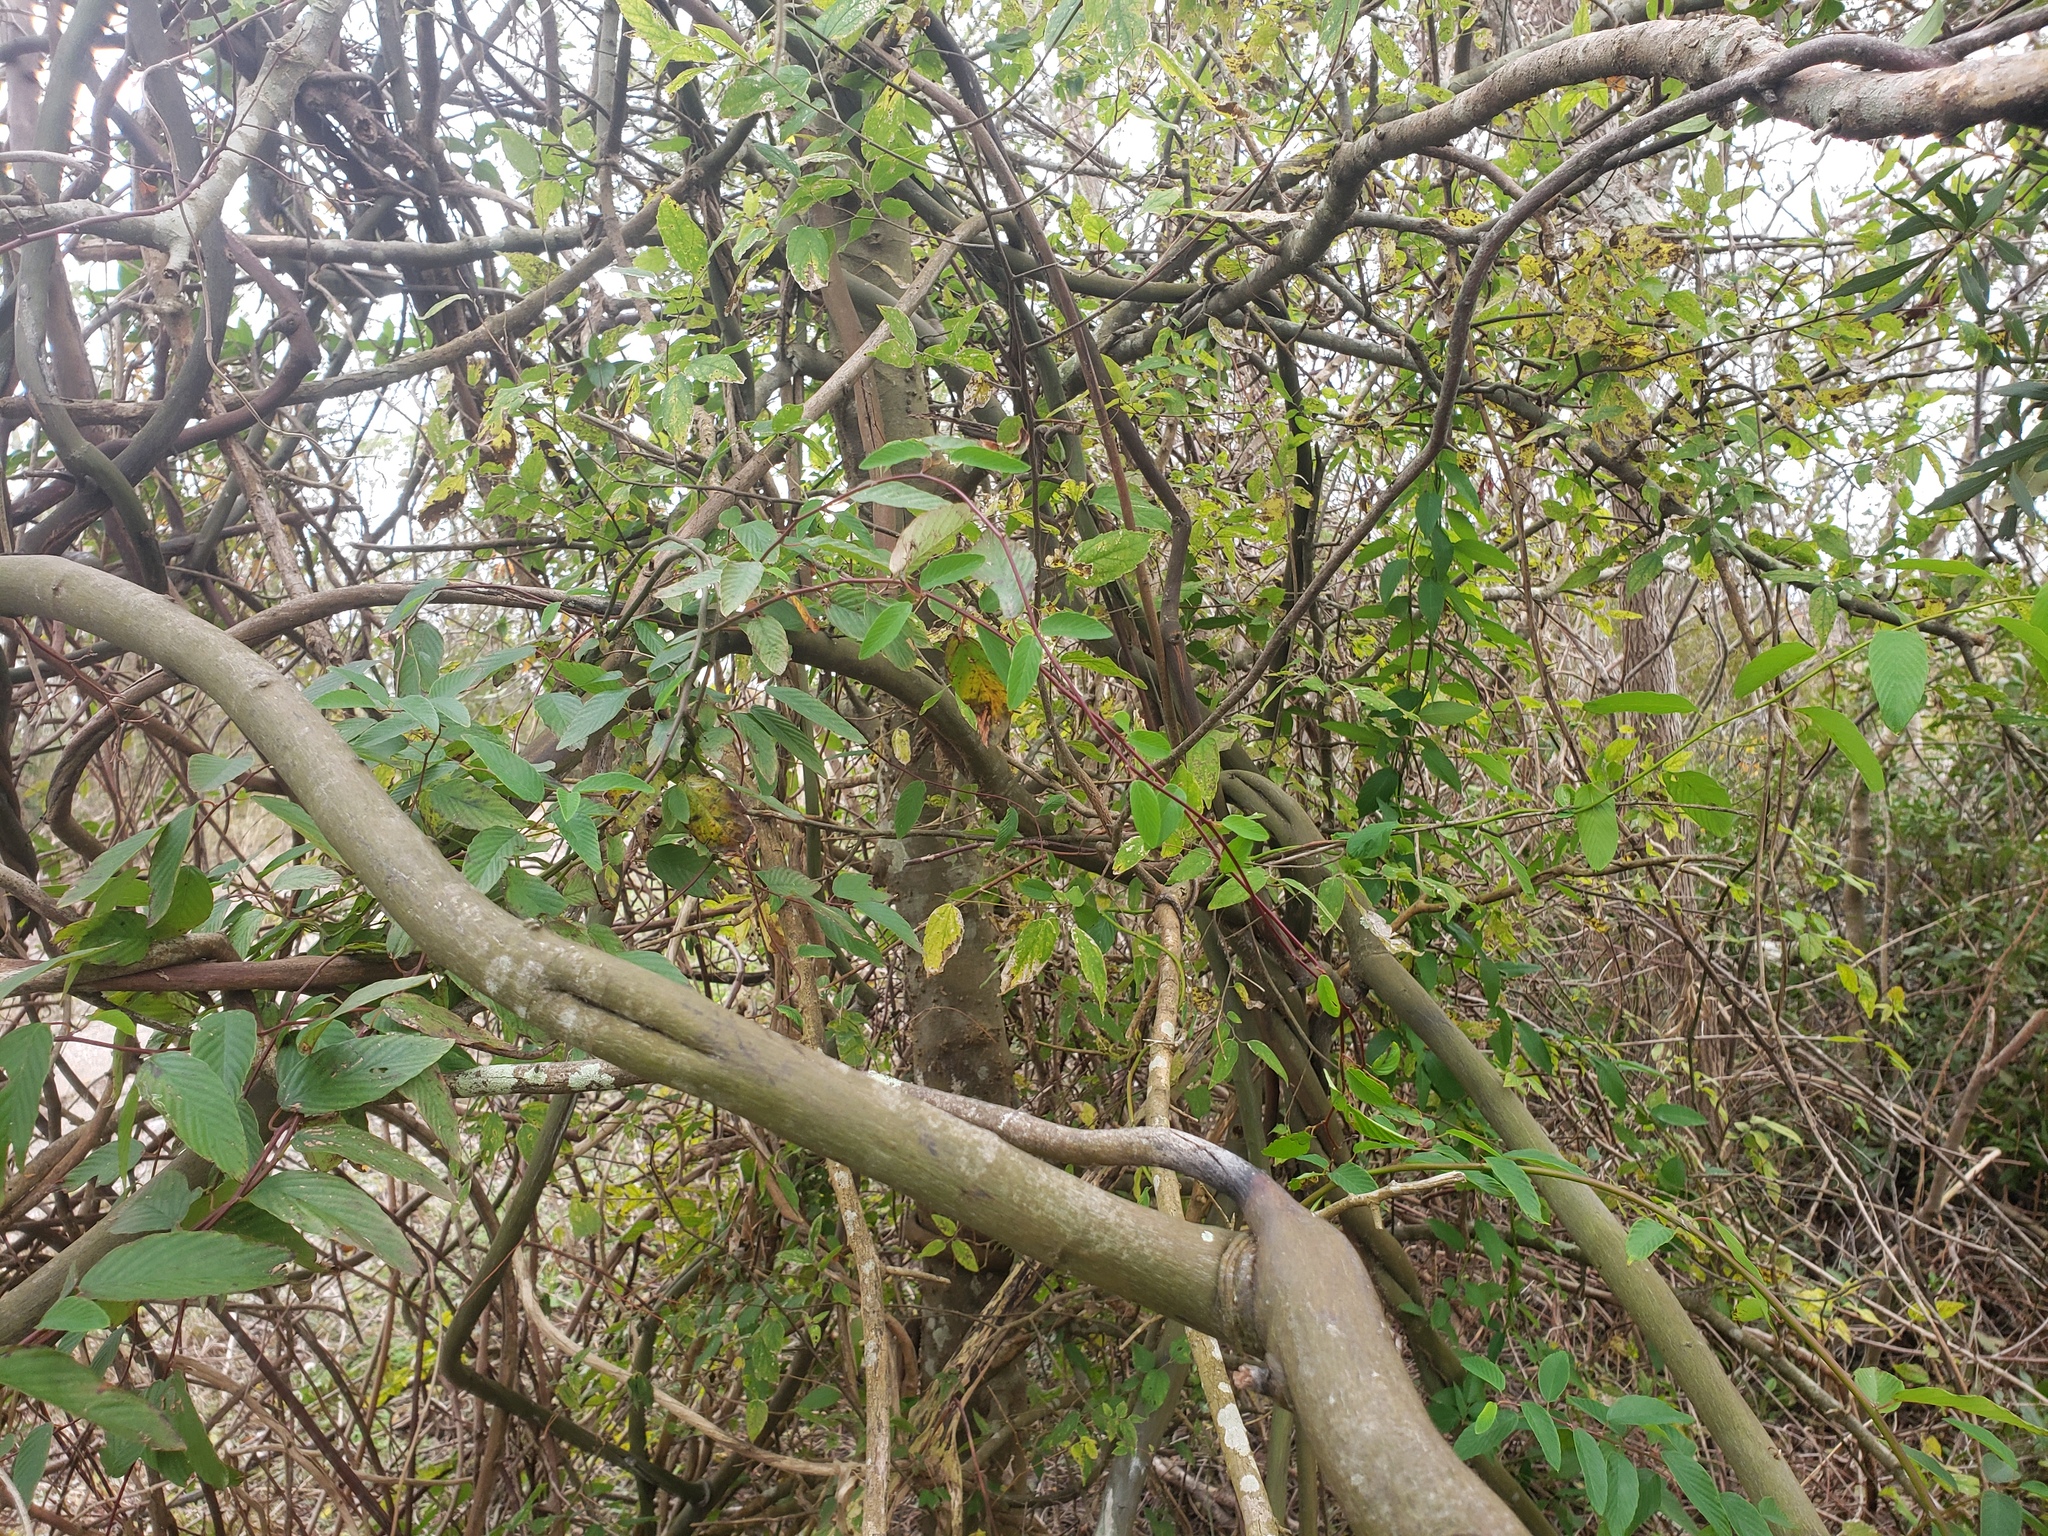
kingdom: Plantae
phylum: Tracheophyta
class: Magnoliopsida
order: Rosales
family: Rhamnaceae
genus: Berchemia
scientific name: Berchemia scandens
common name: Supplejack
